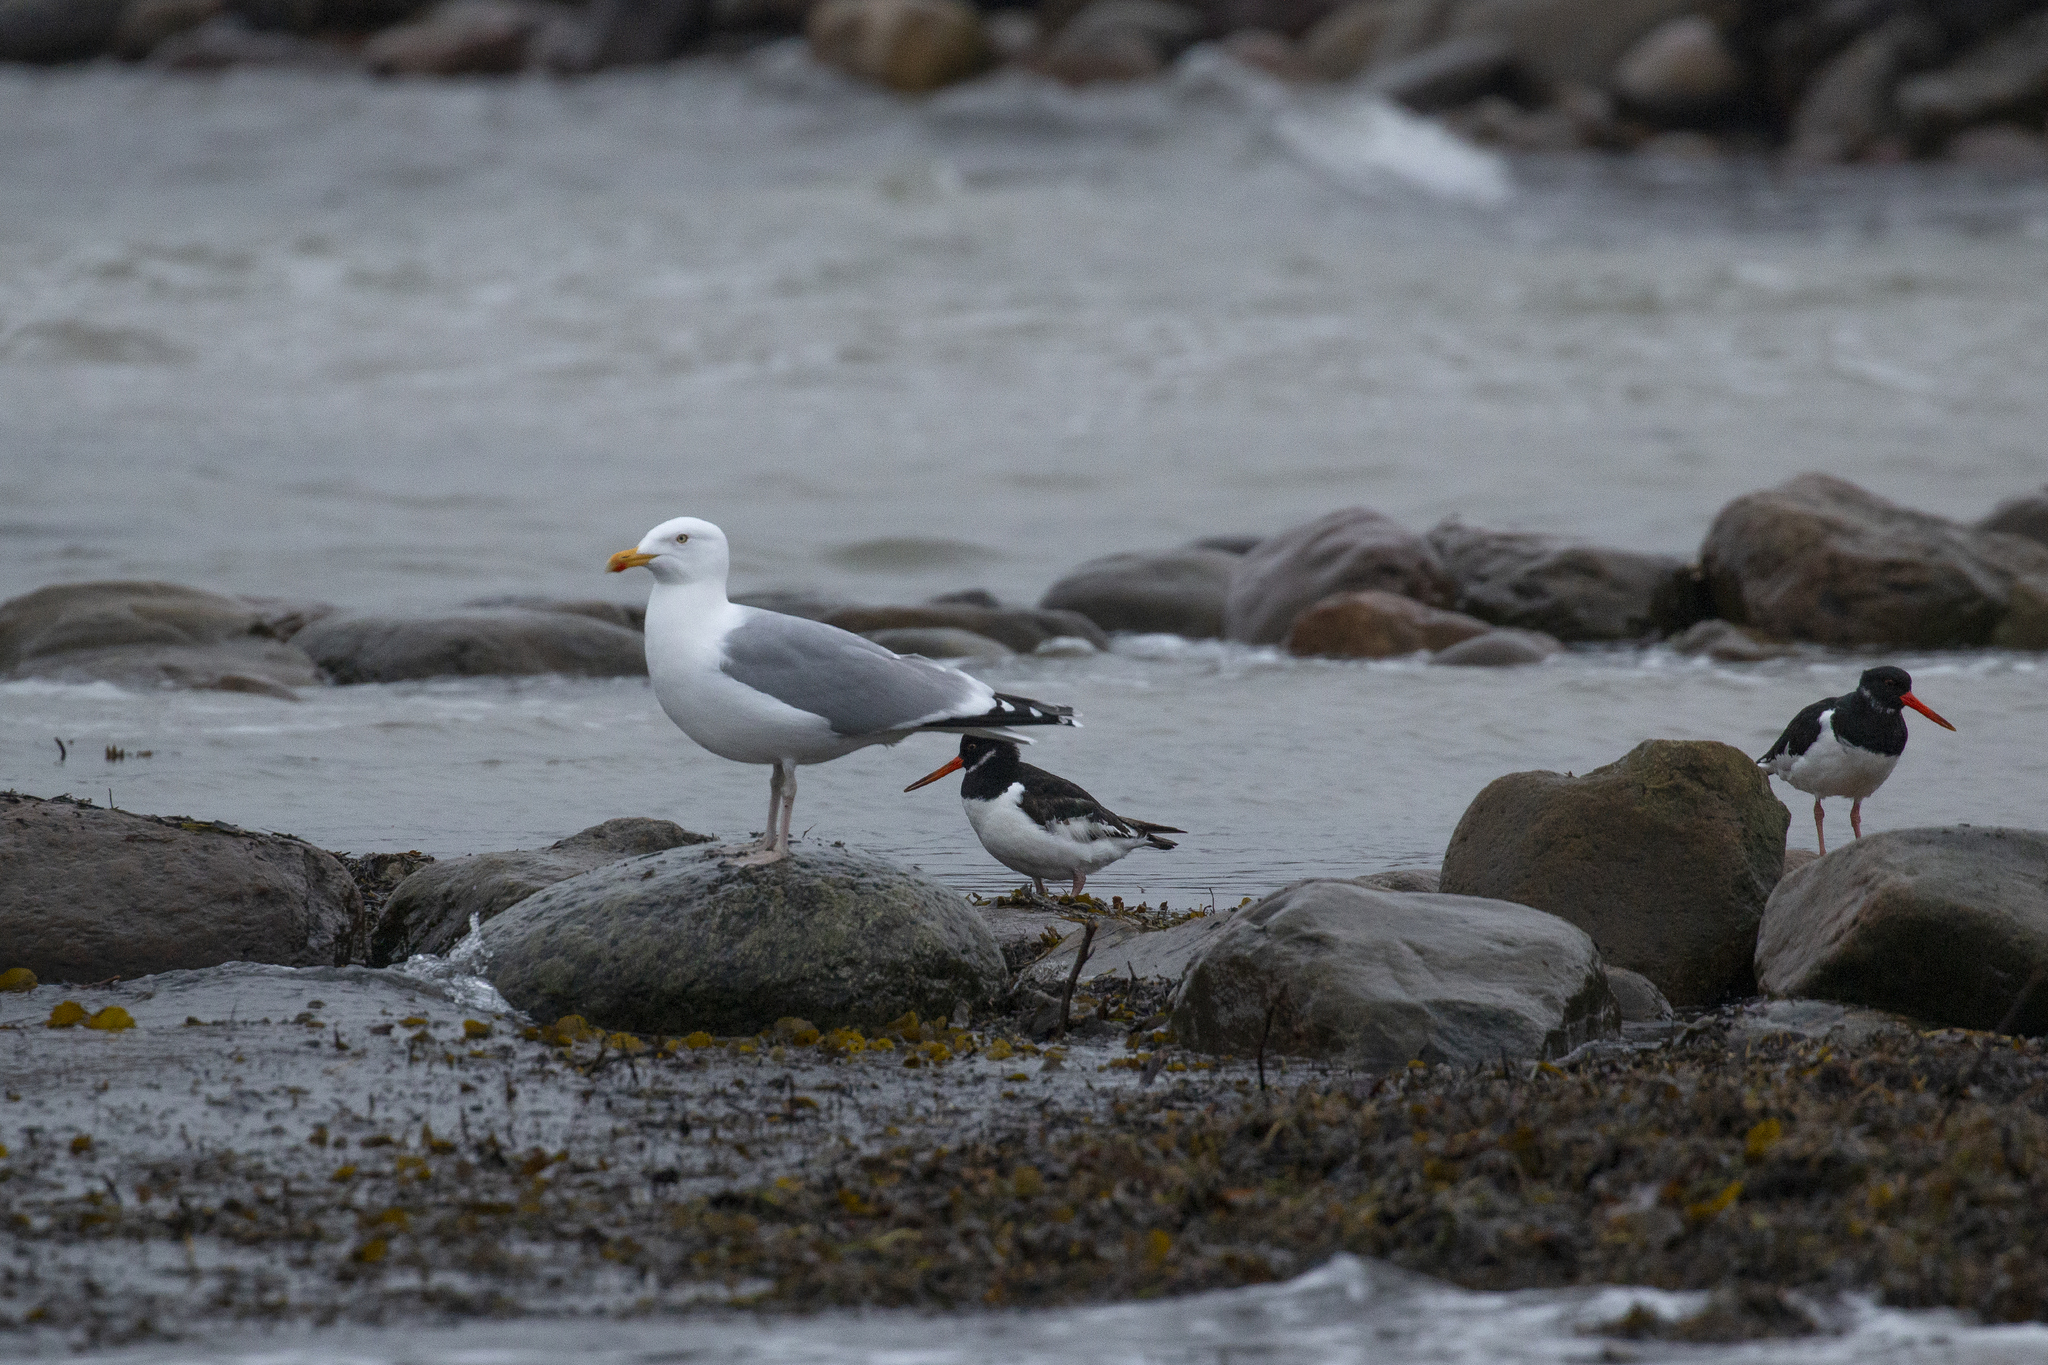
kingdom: Animalia
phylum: Chordata
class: Aves
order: Charadriiformes
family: Laridae
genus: Larus
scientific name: Larus argentatus
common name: Herring gull
